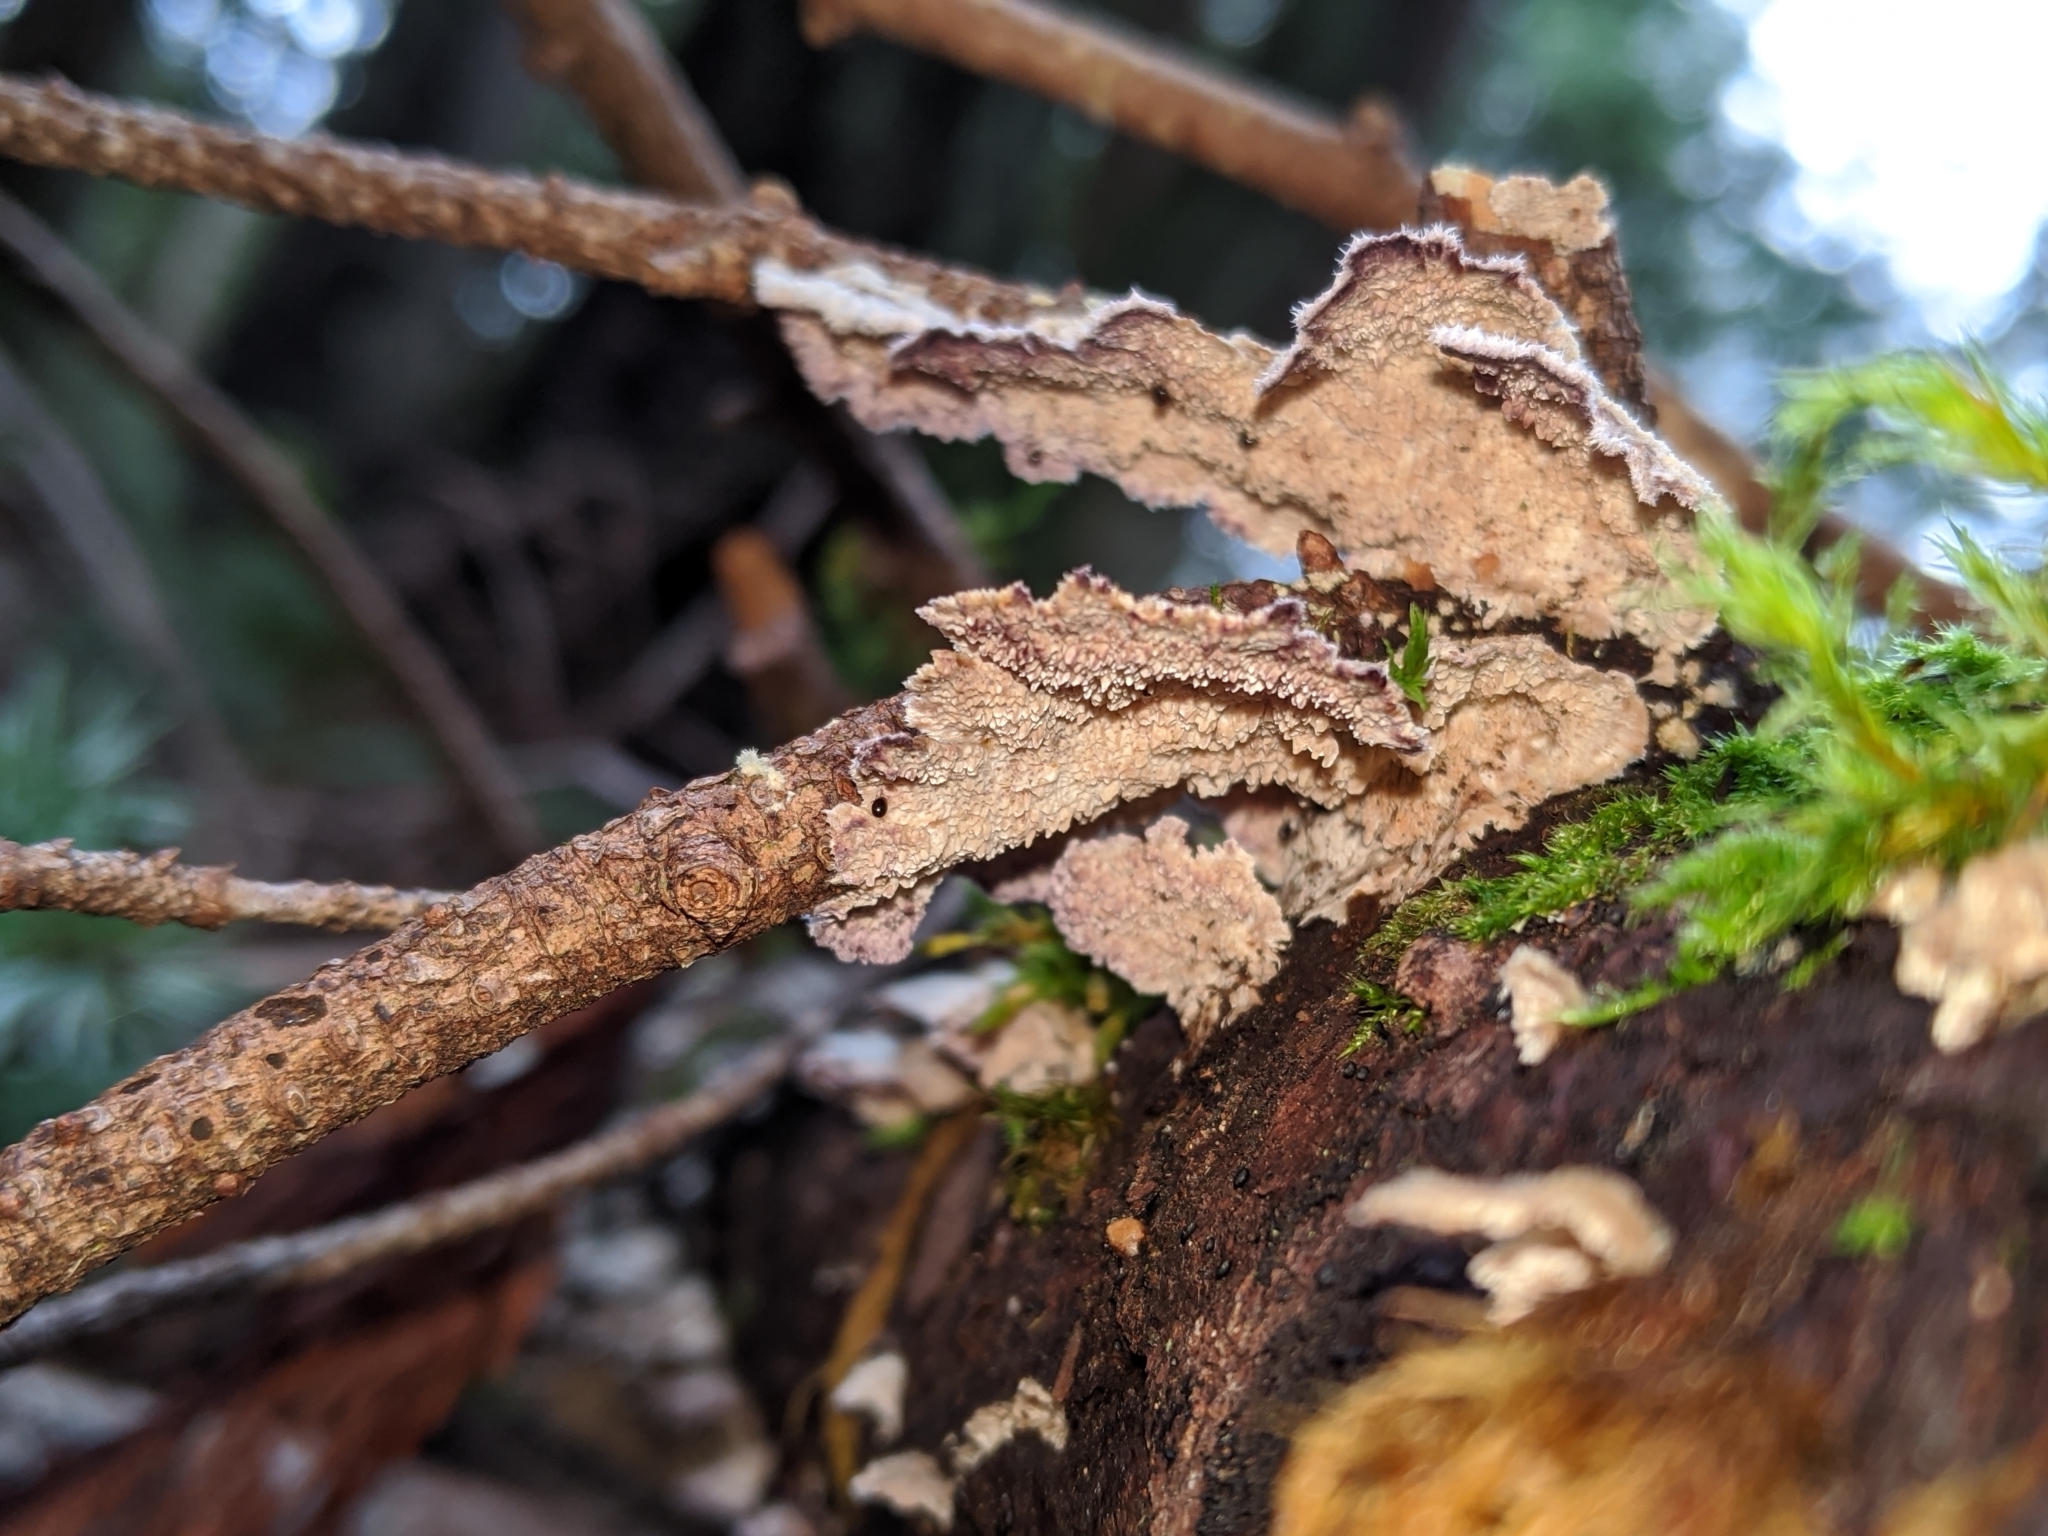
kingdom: Fungi
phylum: Basidiomycota
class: Agaricomycetes
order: Hymenochaetales
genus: Trichaptum
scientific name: Trichaptum abietinum
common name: Purplepore bracket
